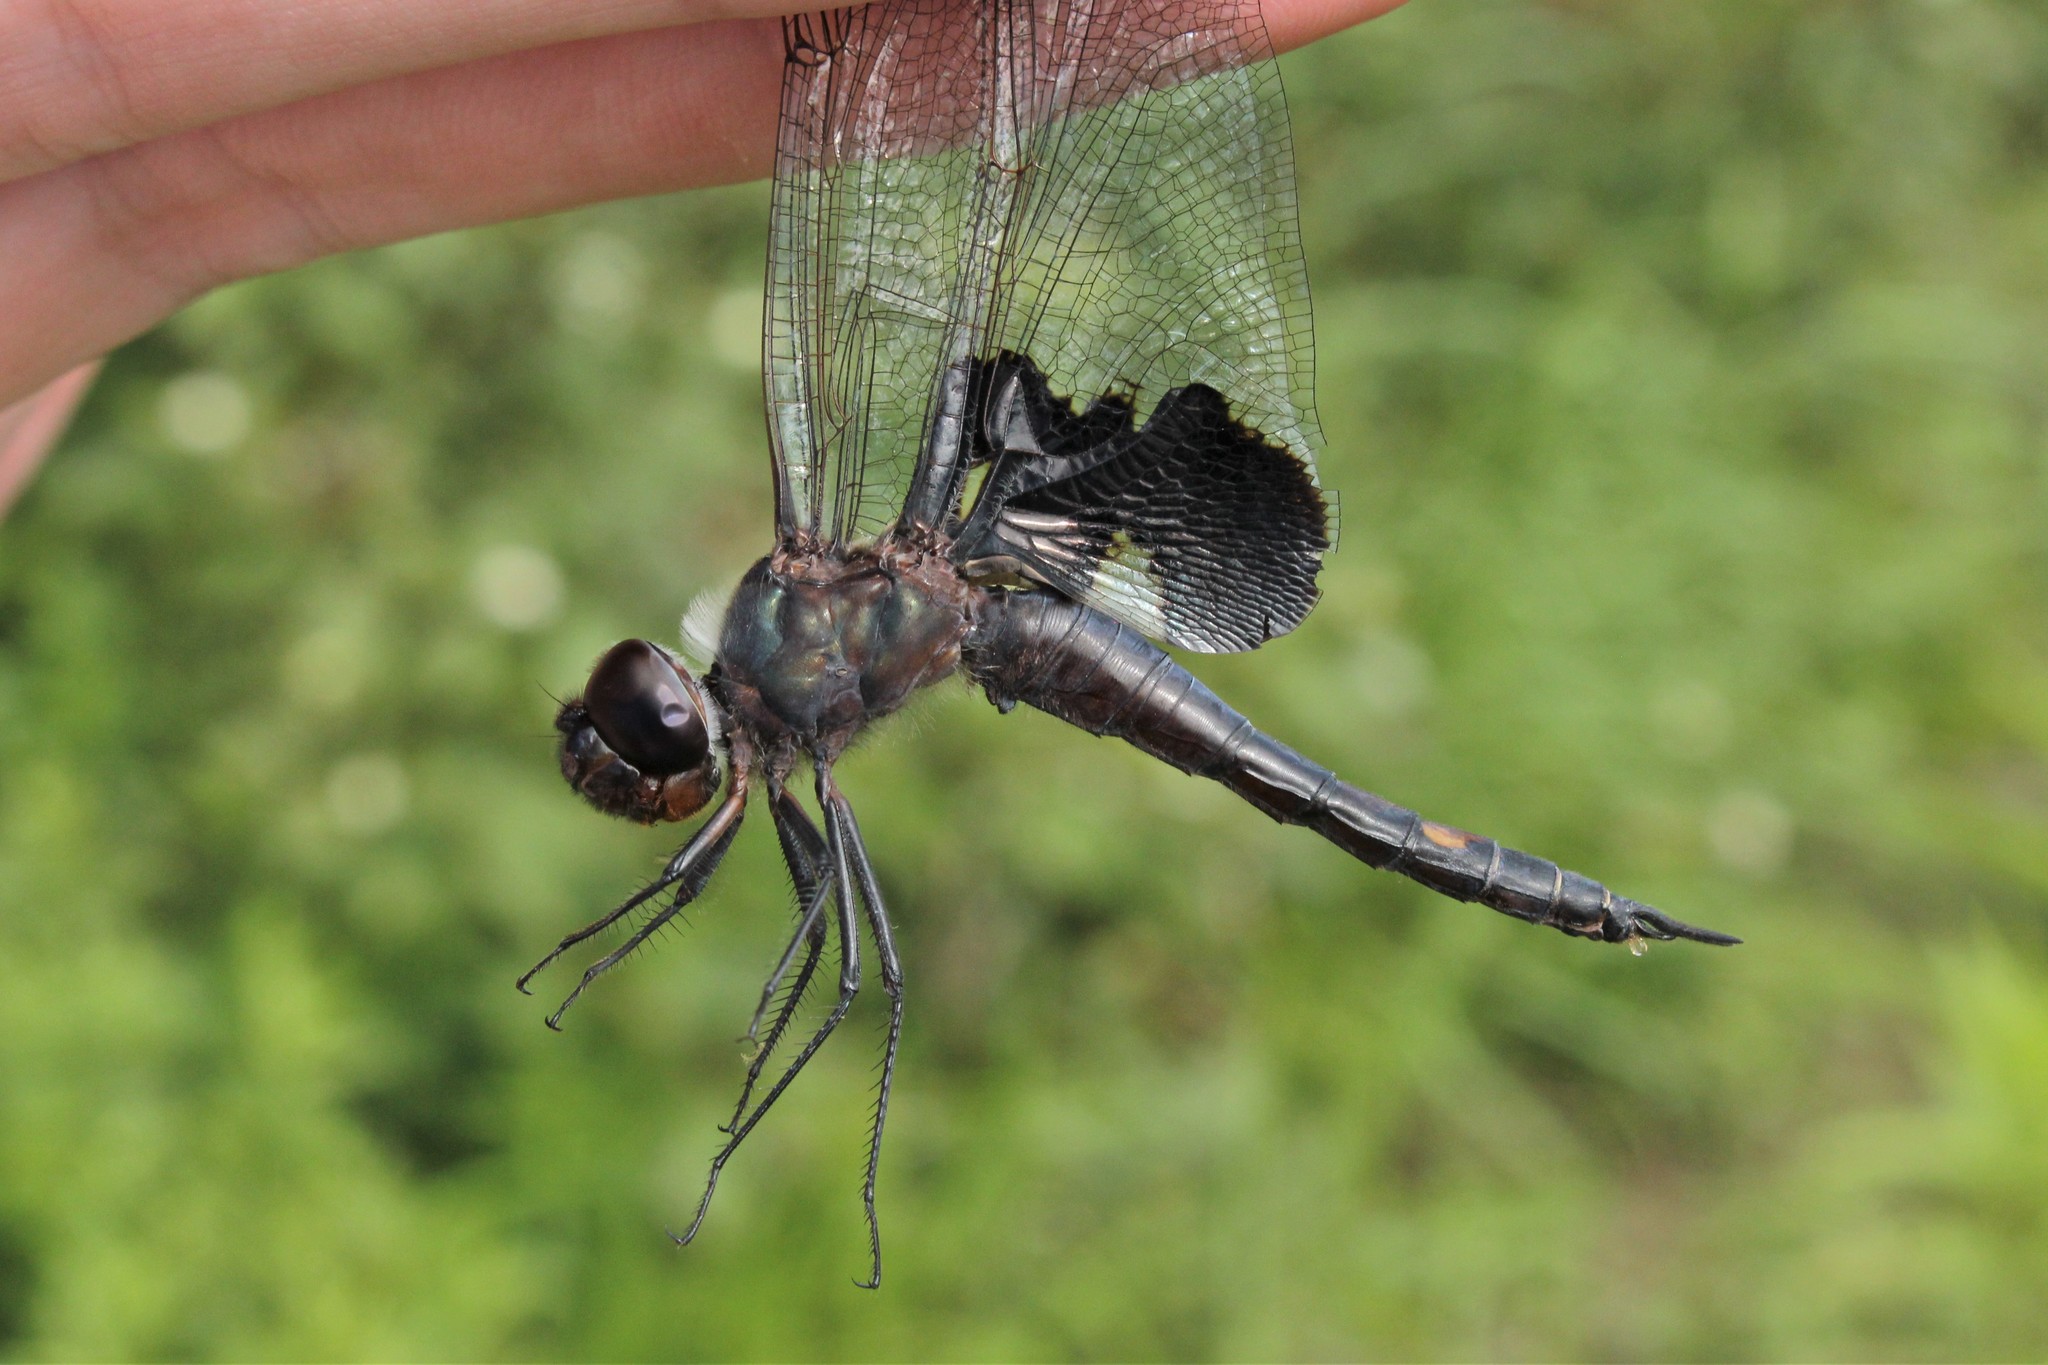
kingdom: Animalia
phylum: Arthropoda
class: Insecta
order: Odonata
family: Libellulidae
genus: Tramea
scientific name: Tramea lacerata
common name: Black saddlebags
